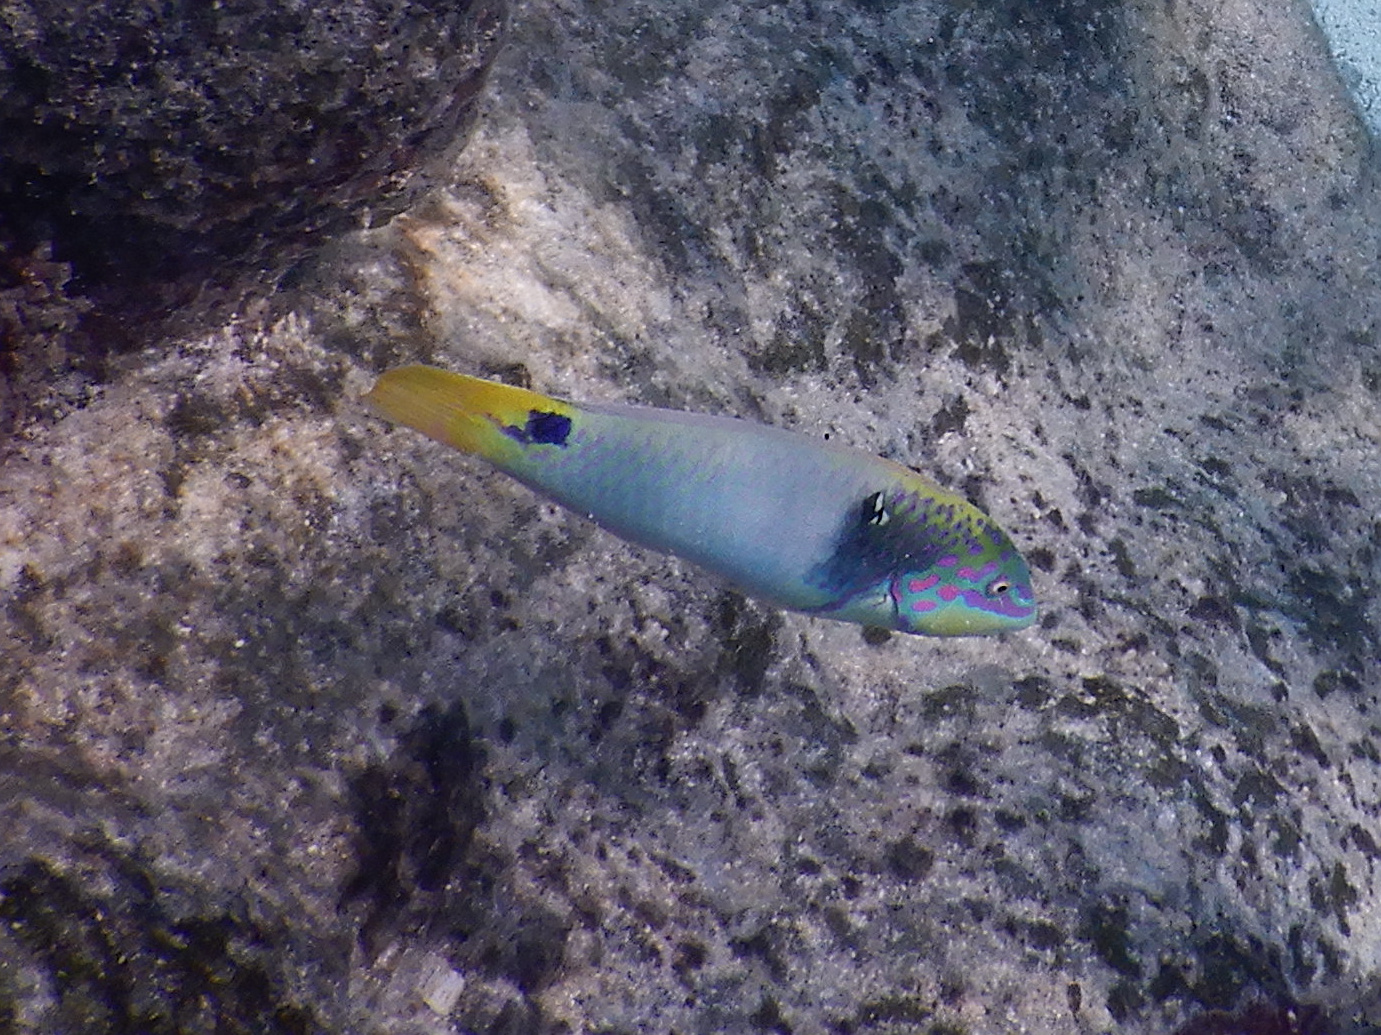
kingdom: Animalia
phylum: Chordata
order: Perciformes
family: Labridae
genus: Halichoeres
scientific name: Halichoeres trimaculatus
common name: Three-spot wrasse
